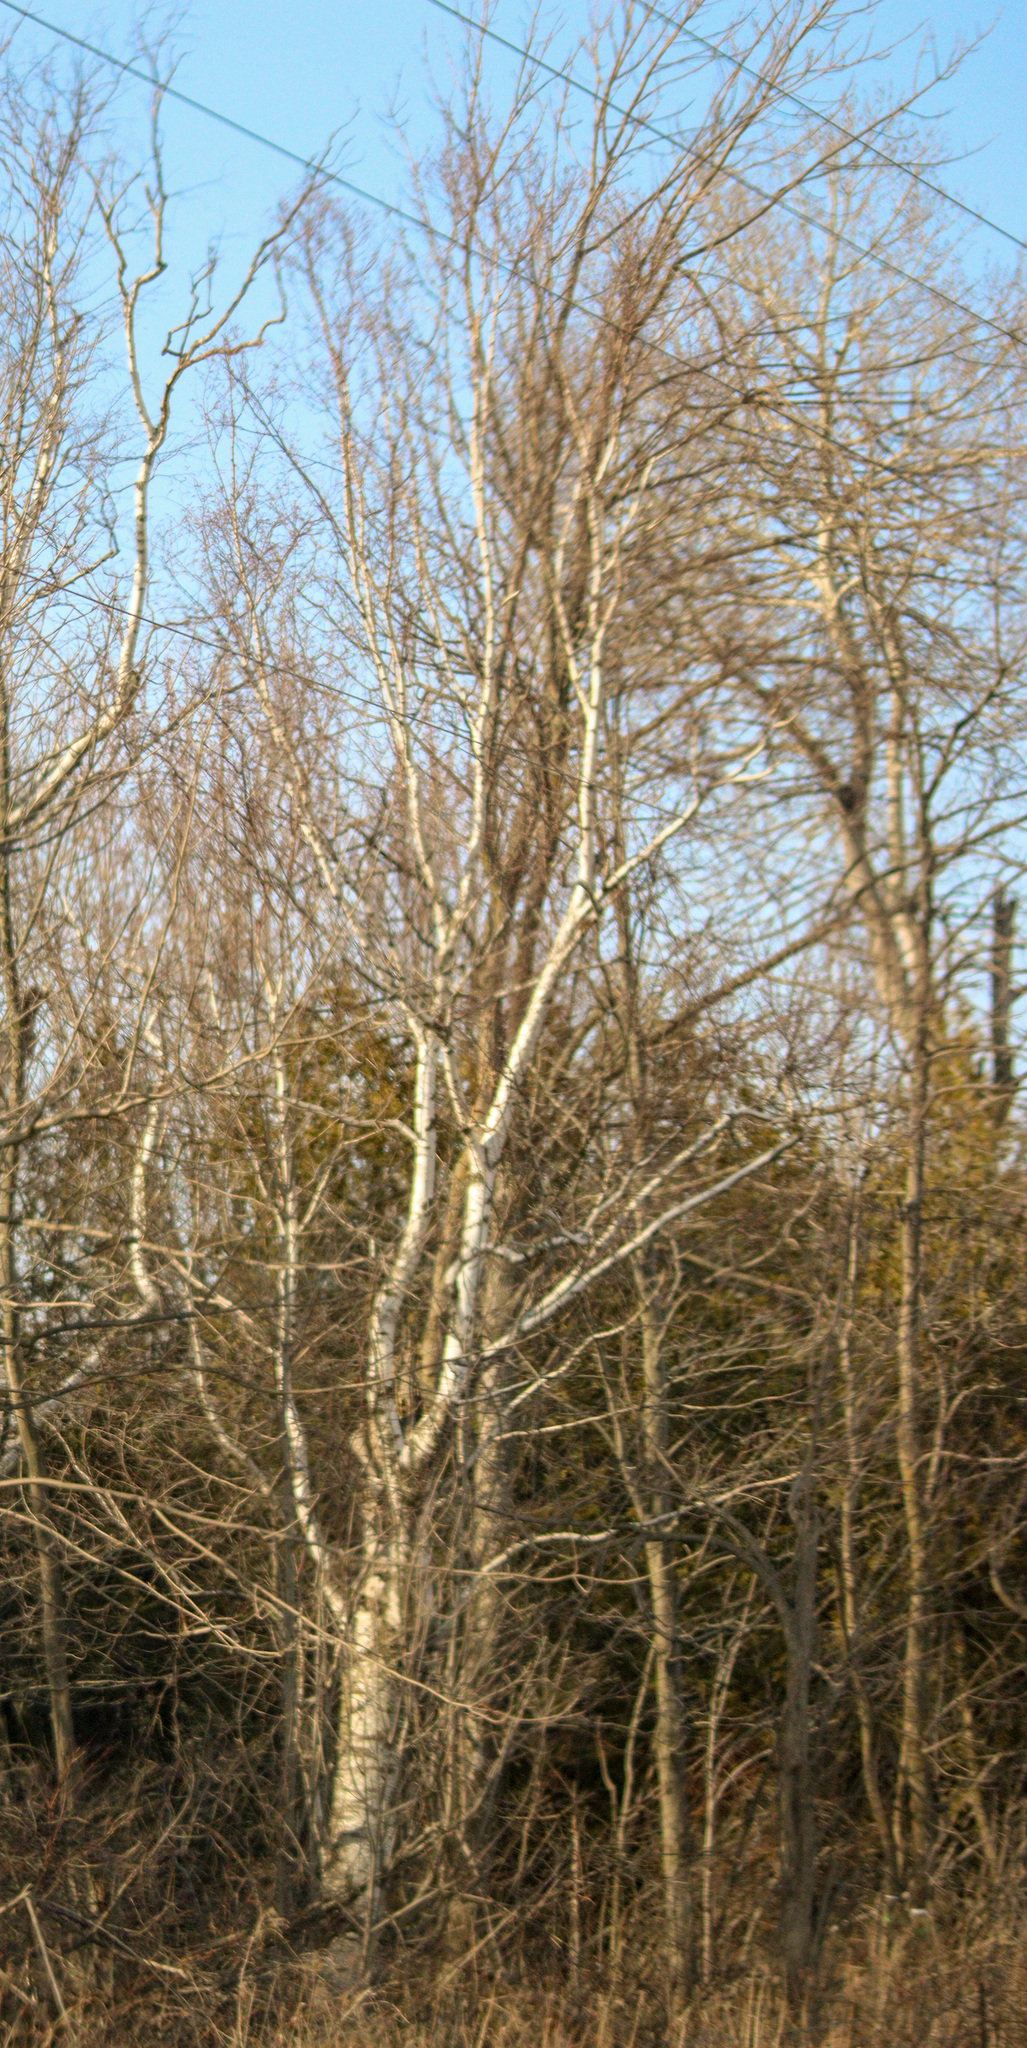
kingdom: Plantae
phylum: Tracheophyta
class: Magnoliopsida
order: Fagales
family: Betulaceae
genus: Betula
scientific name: Betula papyrifera
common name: Paper birch
